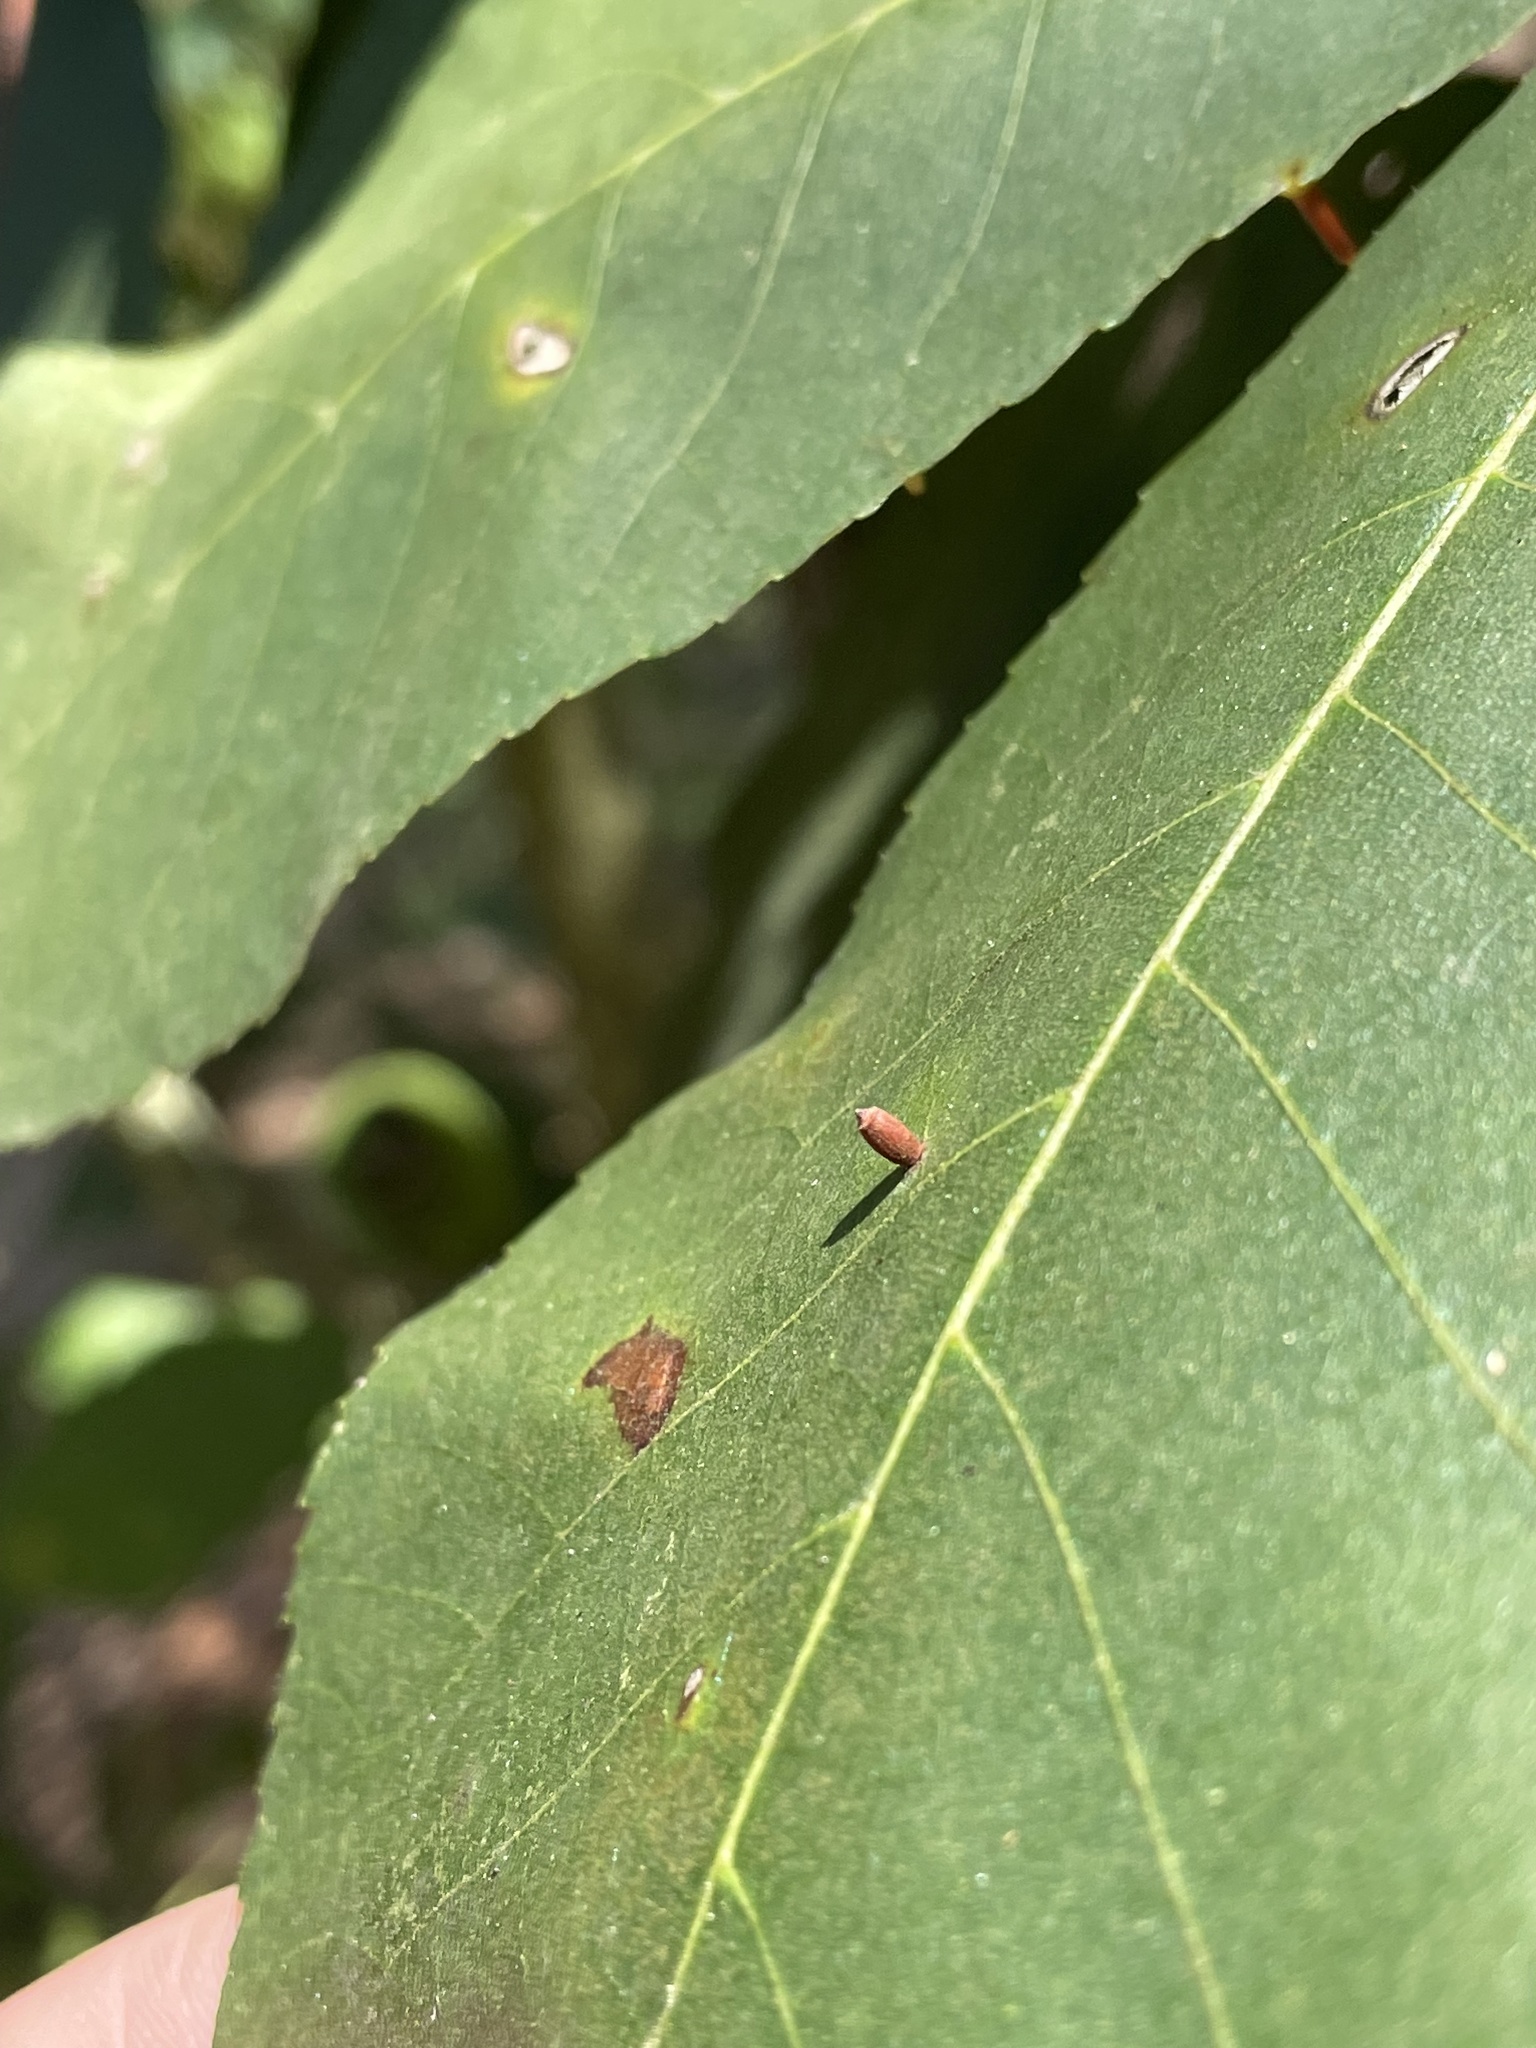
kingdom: Animalia
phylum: Arthropoda
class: Insecta
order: Diptera
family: Cecidomyiidae
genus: Caryomyia
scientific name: Caryomyia urnula
